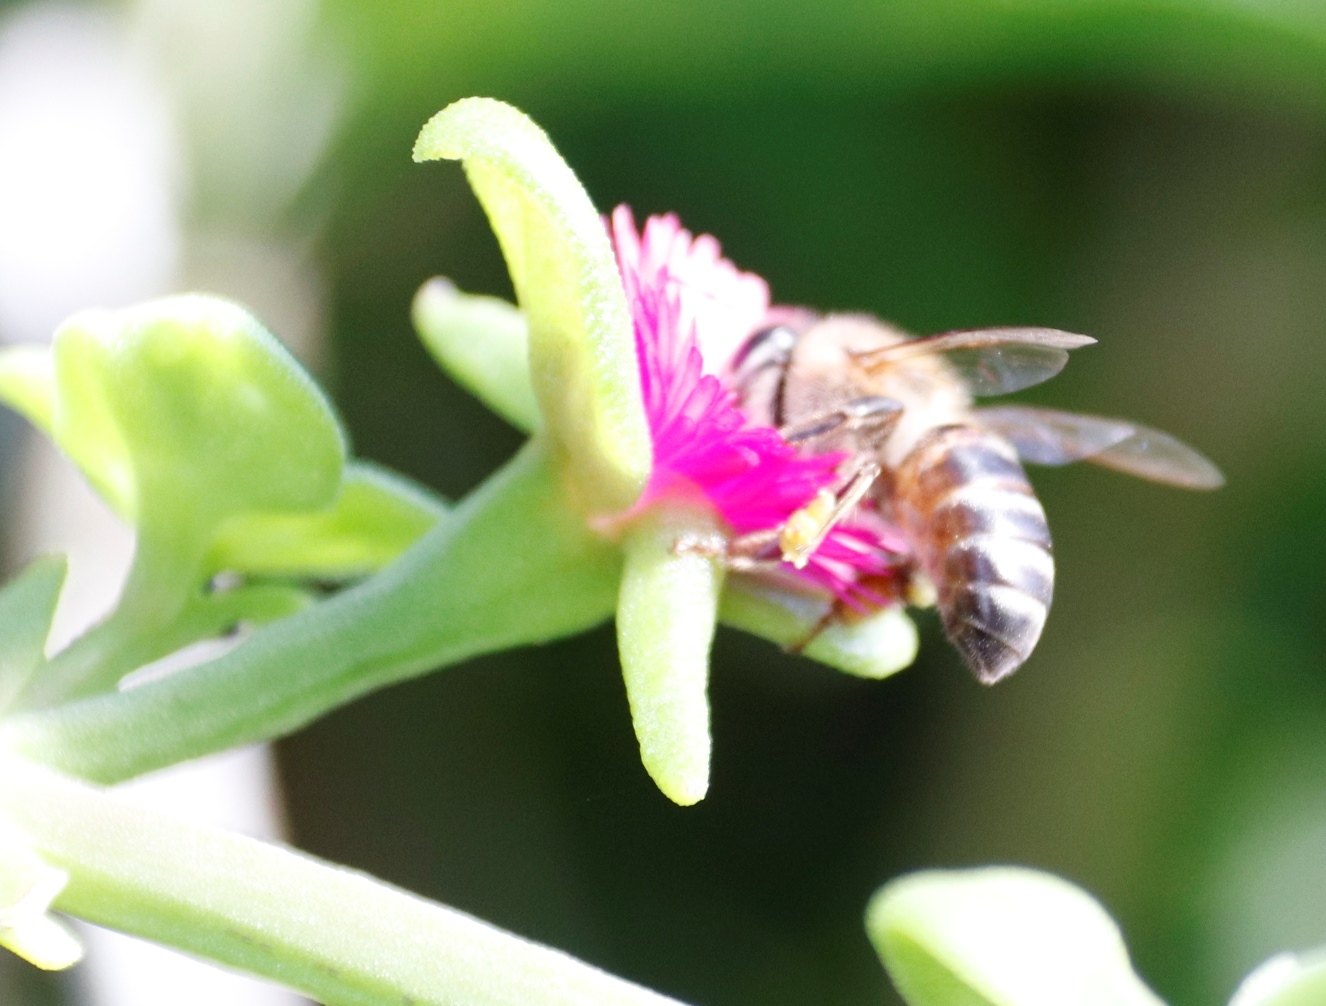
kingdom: Animalia
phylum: Arthropoda
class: Insecta
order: Hymenoptera
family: Apidae
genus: Apis
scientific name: Apis mellifera
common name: Honey bee
